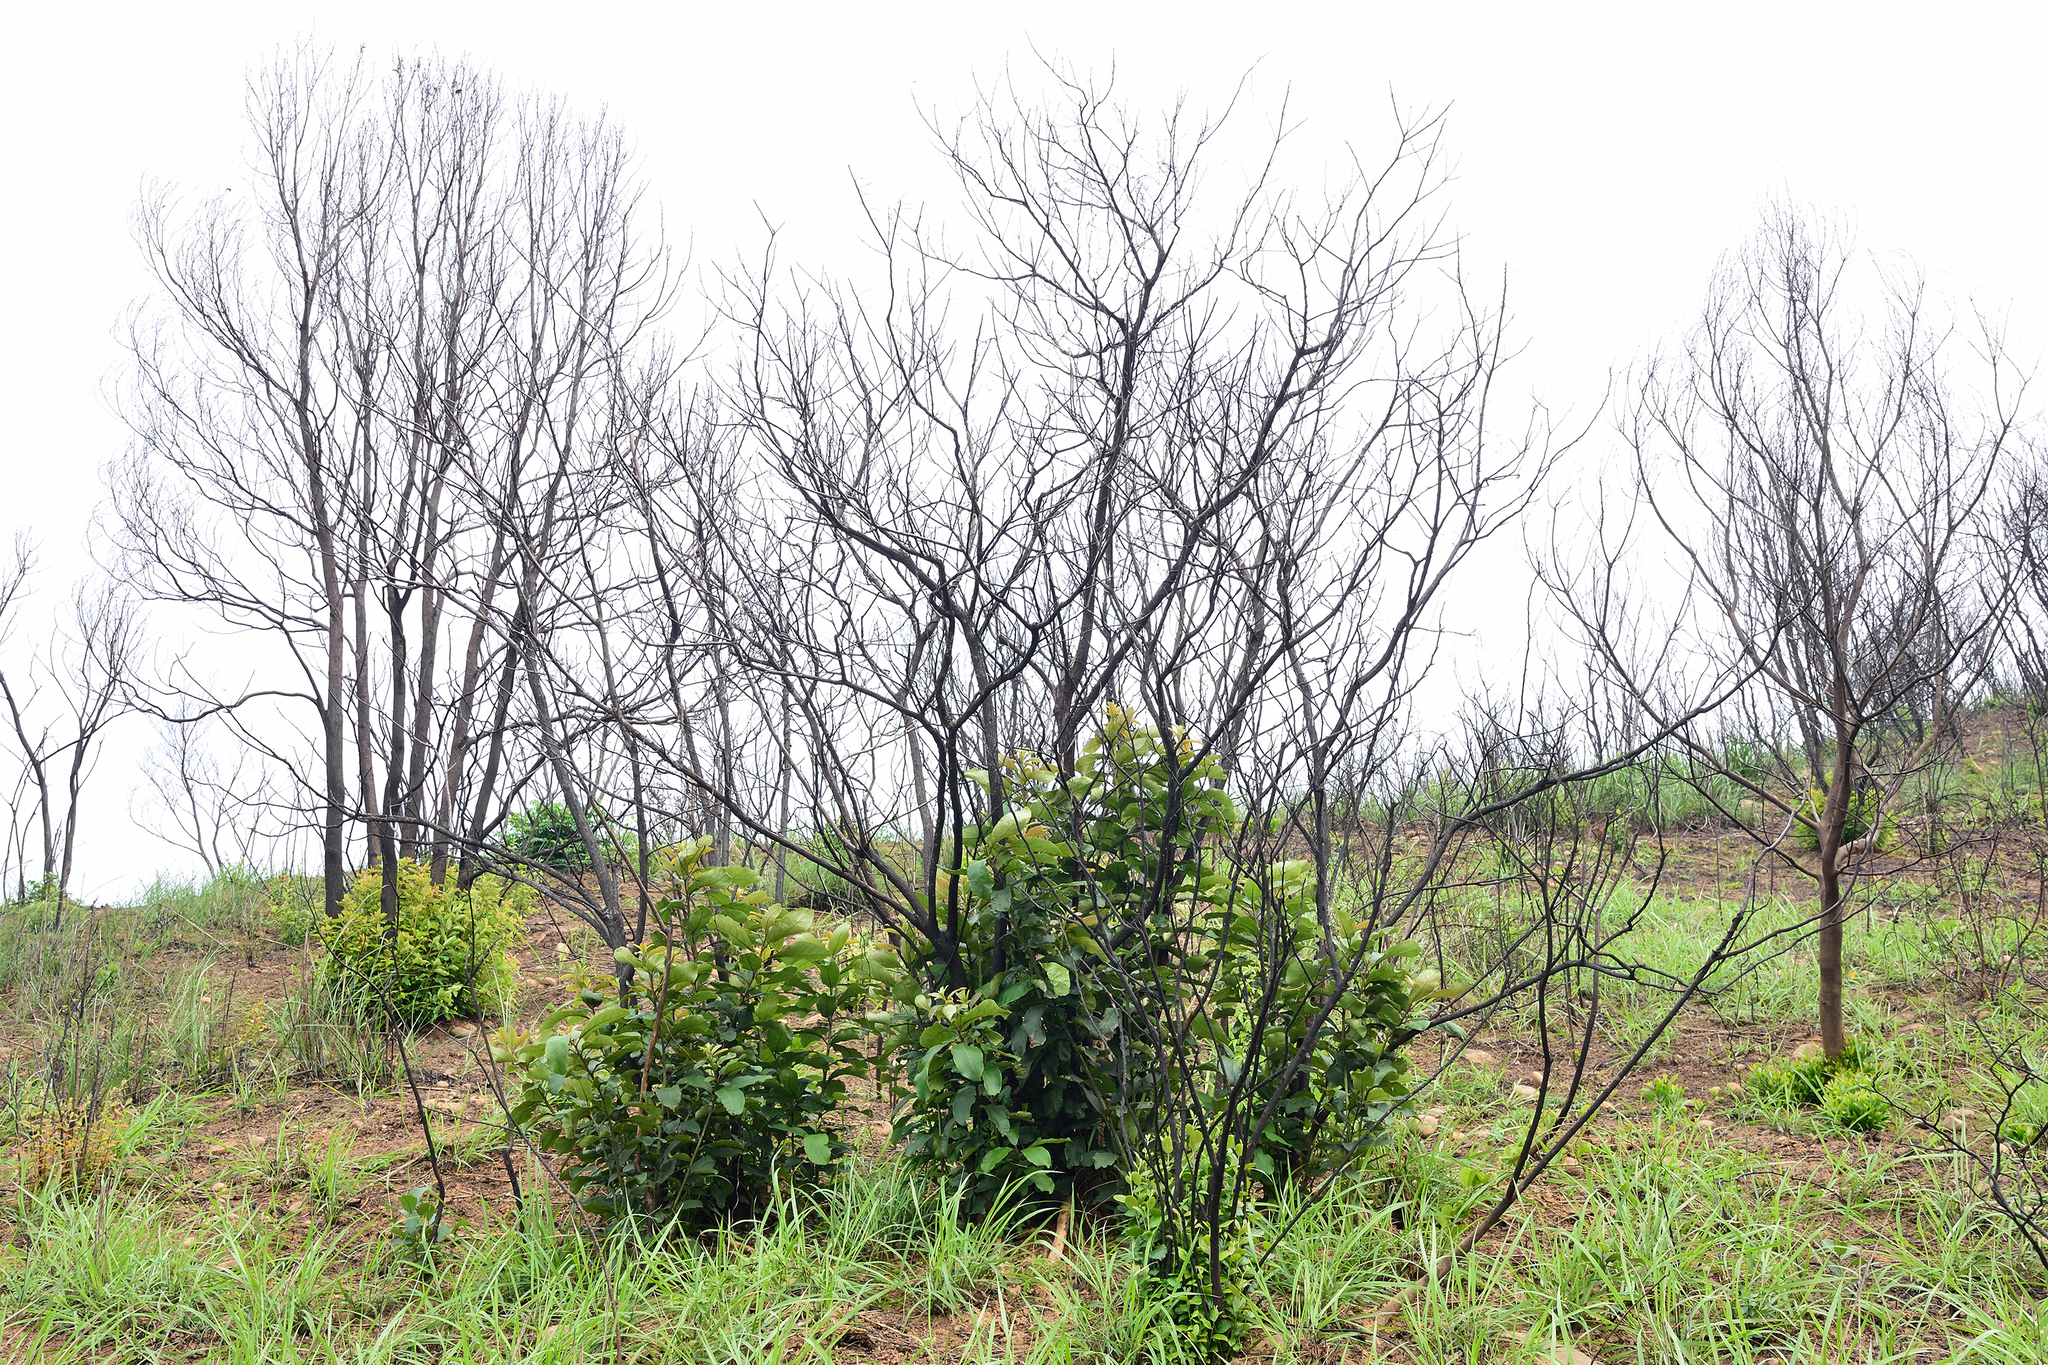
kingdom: Plantae
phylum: Tracheophyta
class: Magnoliopsida
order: Boraginales
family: Ehretiaceae
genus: Ehretia
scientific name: Ehretia acuminata
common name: Kodo wood
